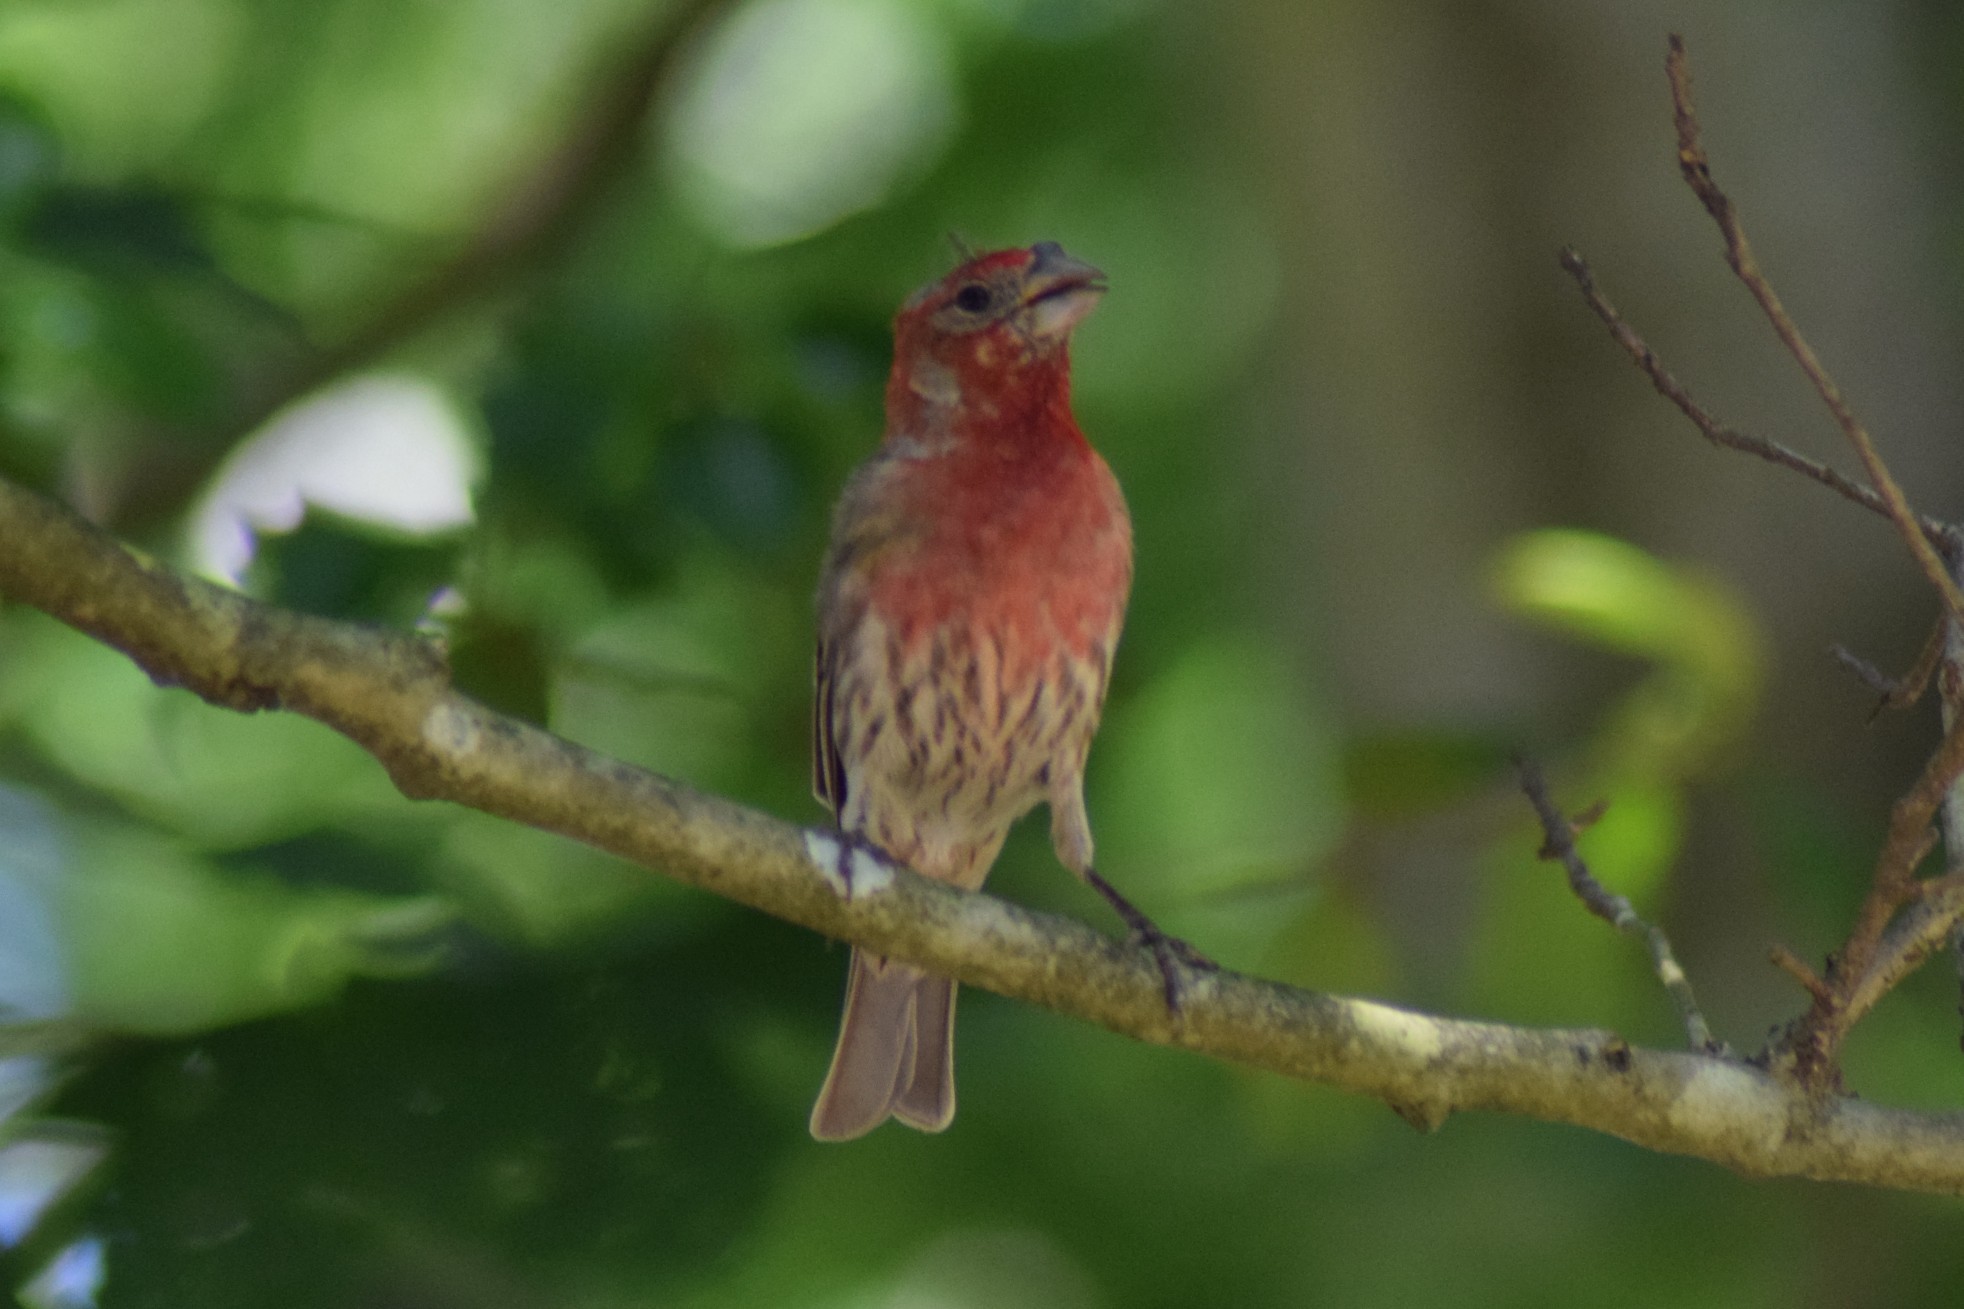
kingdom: Animalia
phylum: Chordata
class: Aves
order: Passeriformes
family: Fringillidae
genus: Haemorhous
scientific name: Haemorhous mexicanus
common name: House finch
